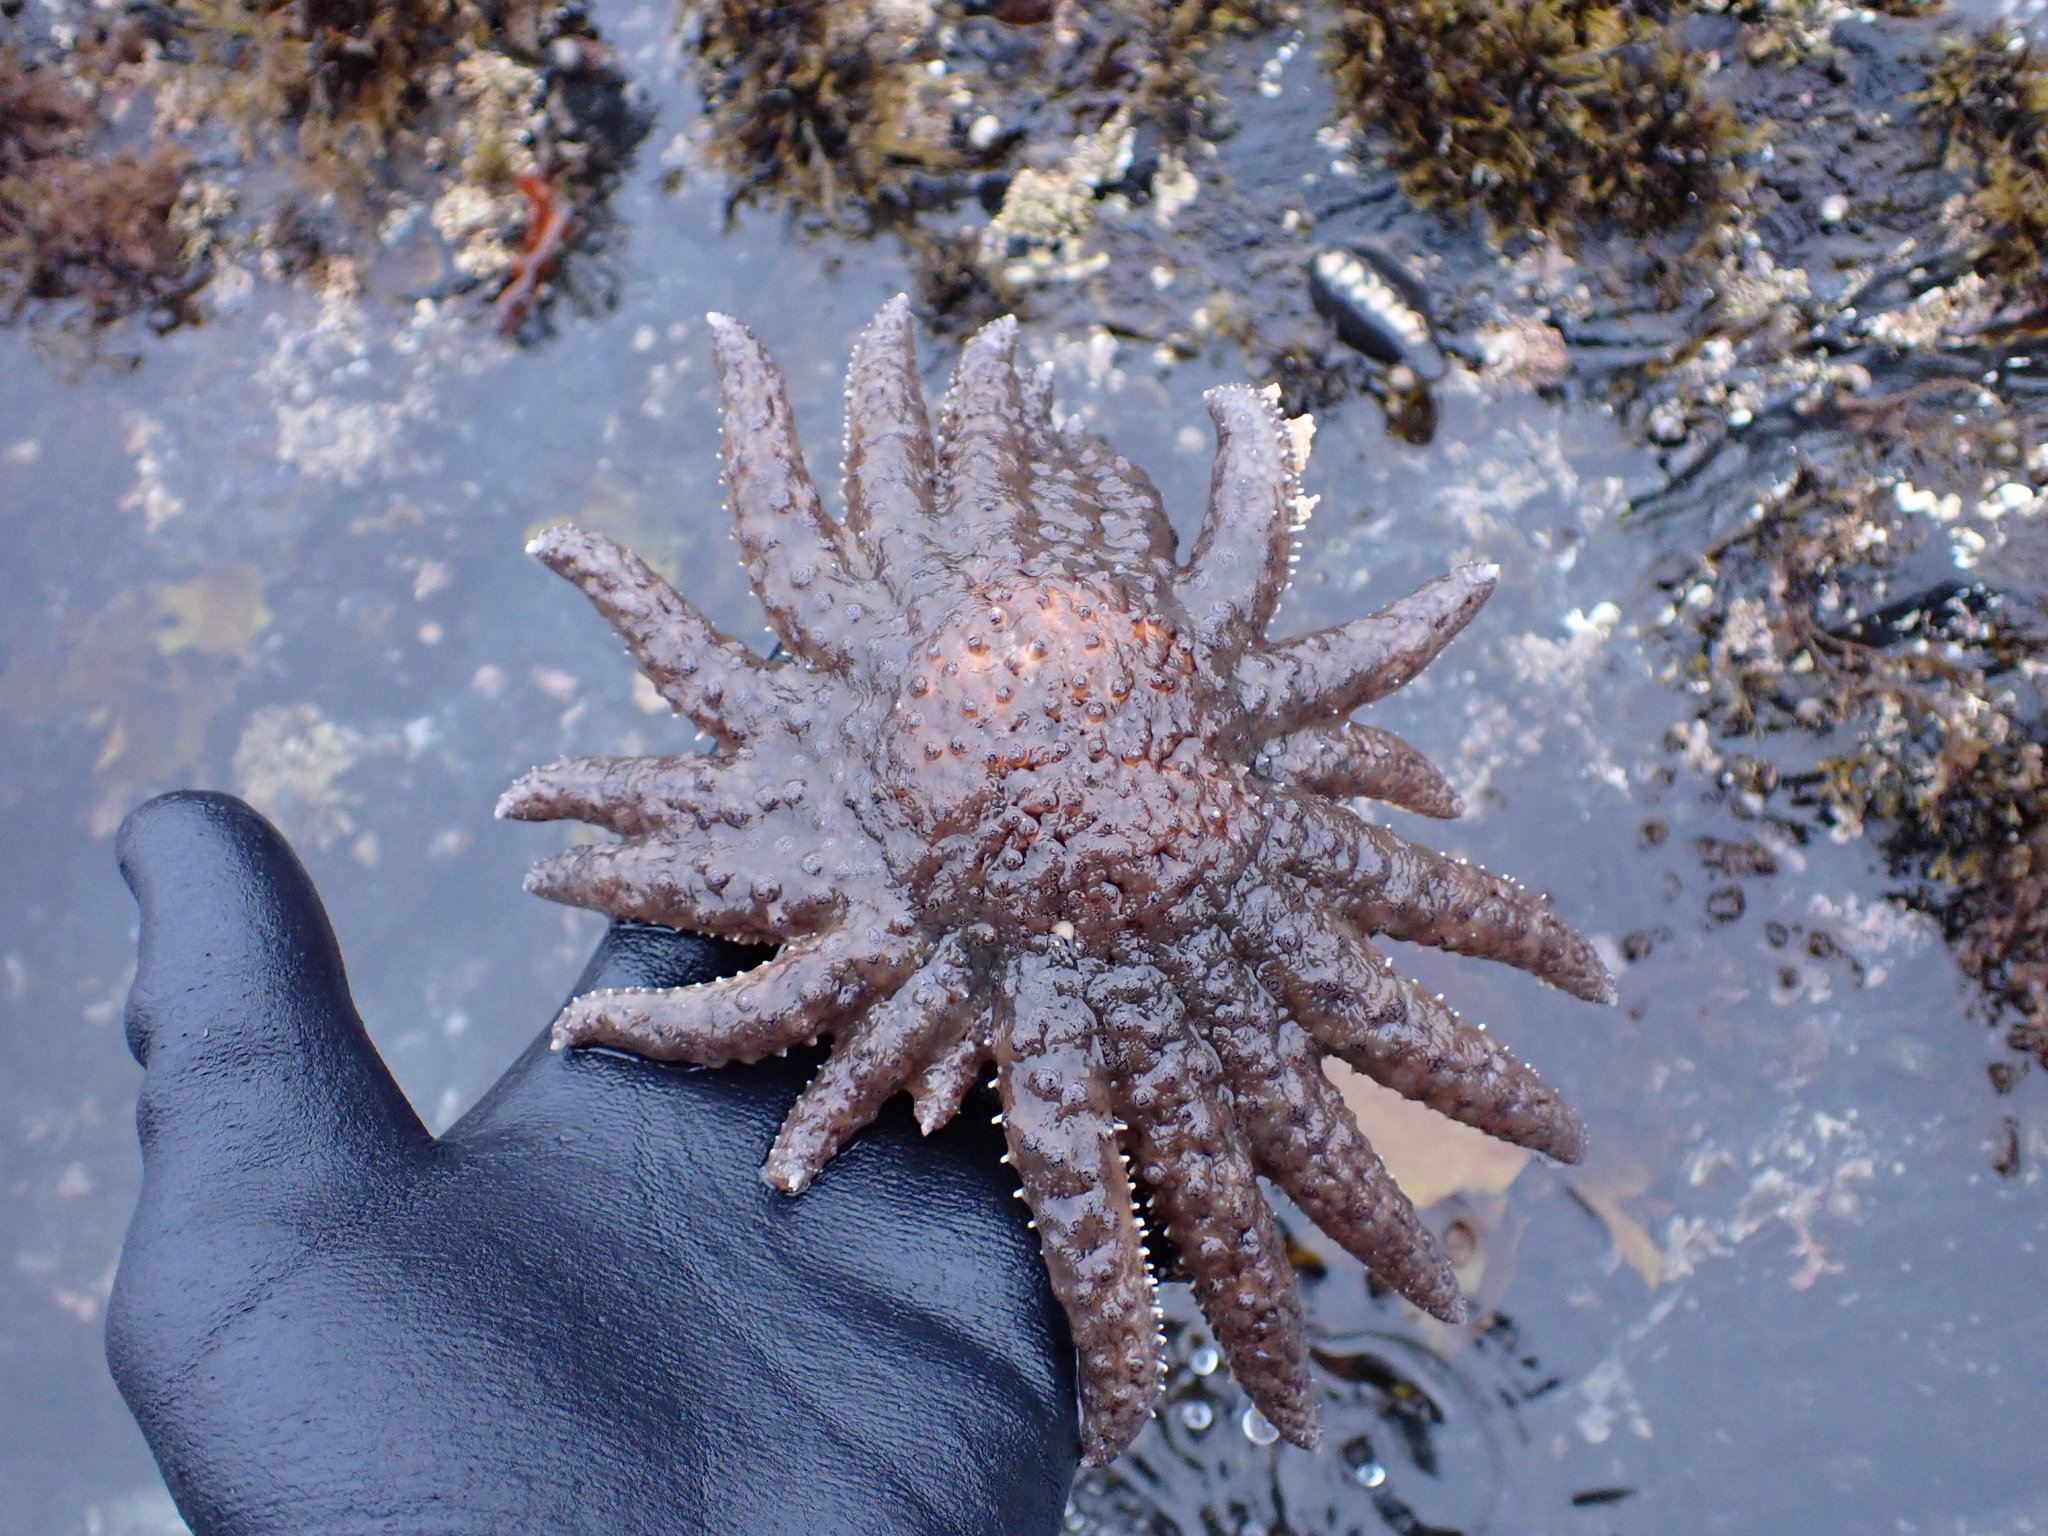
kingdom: Animalia
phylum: Echinodermata
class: Asteroidea
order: Forcipulatida
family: Asteriidae
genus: Pycnopodia
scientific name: Pycnopodia helianthoides
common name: Rag mop
